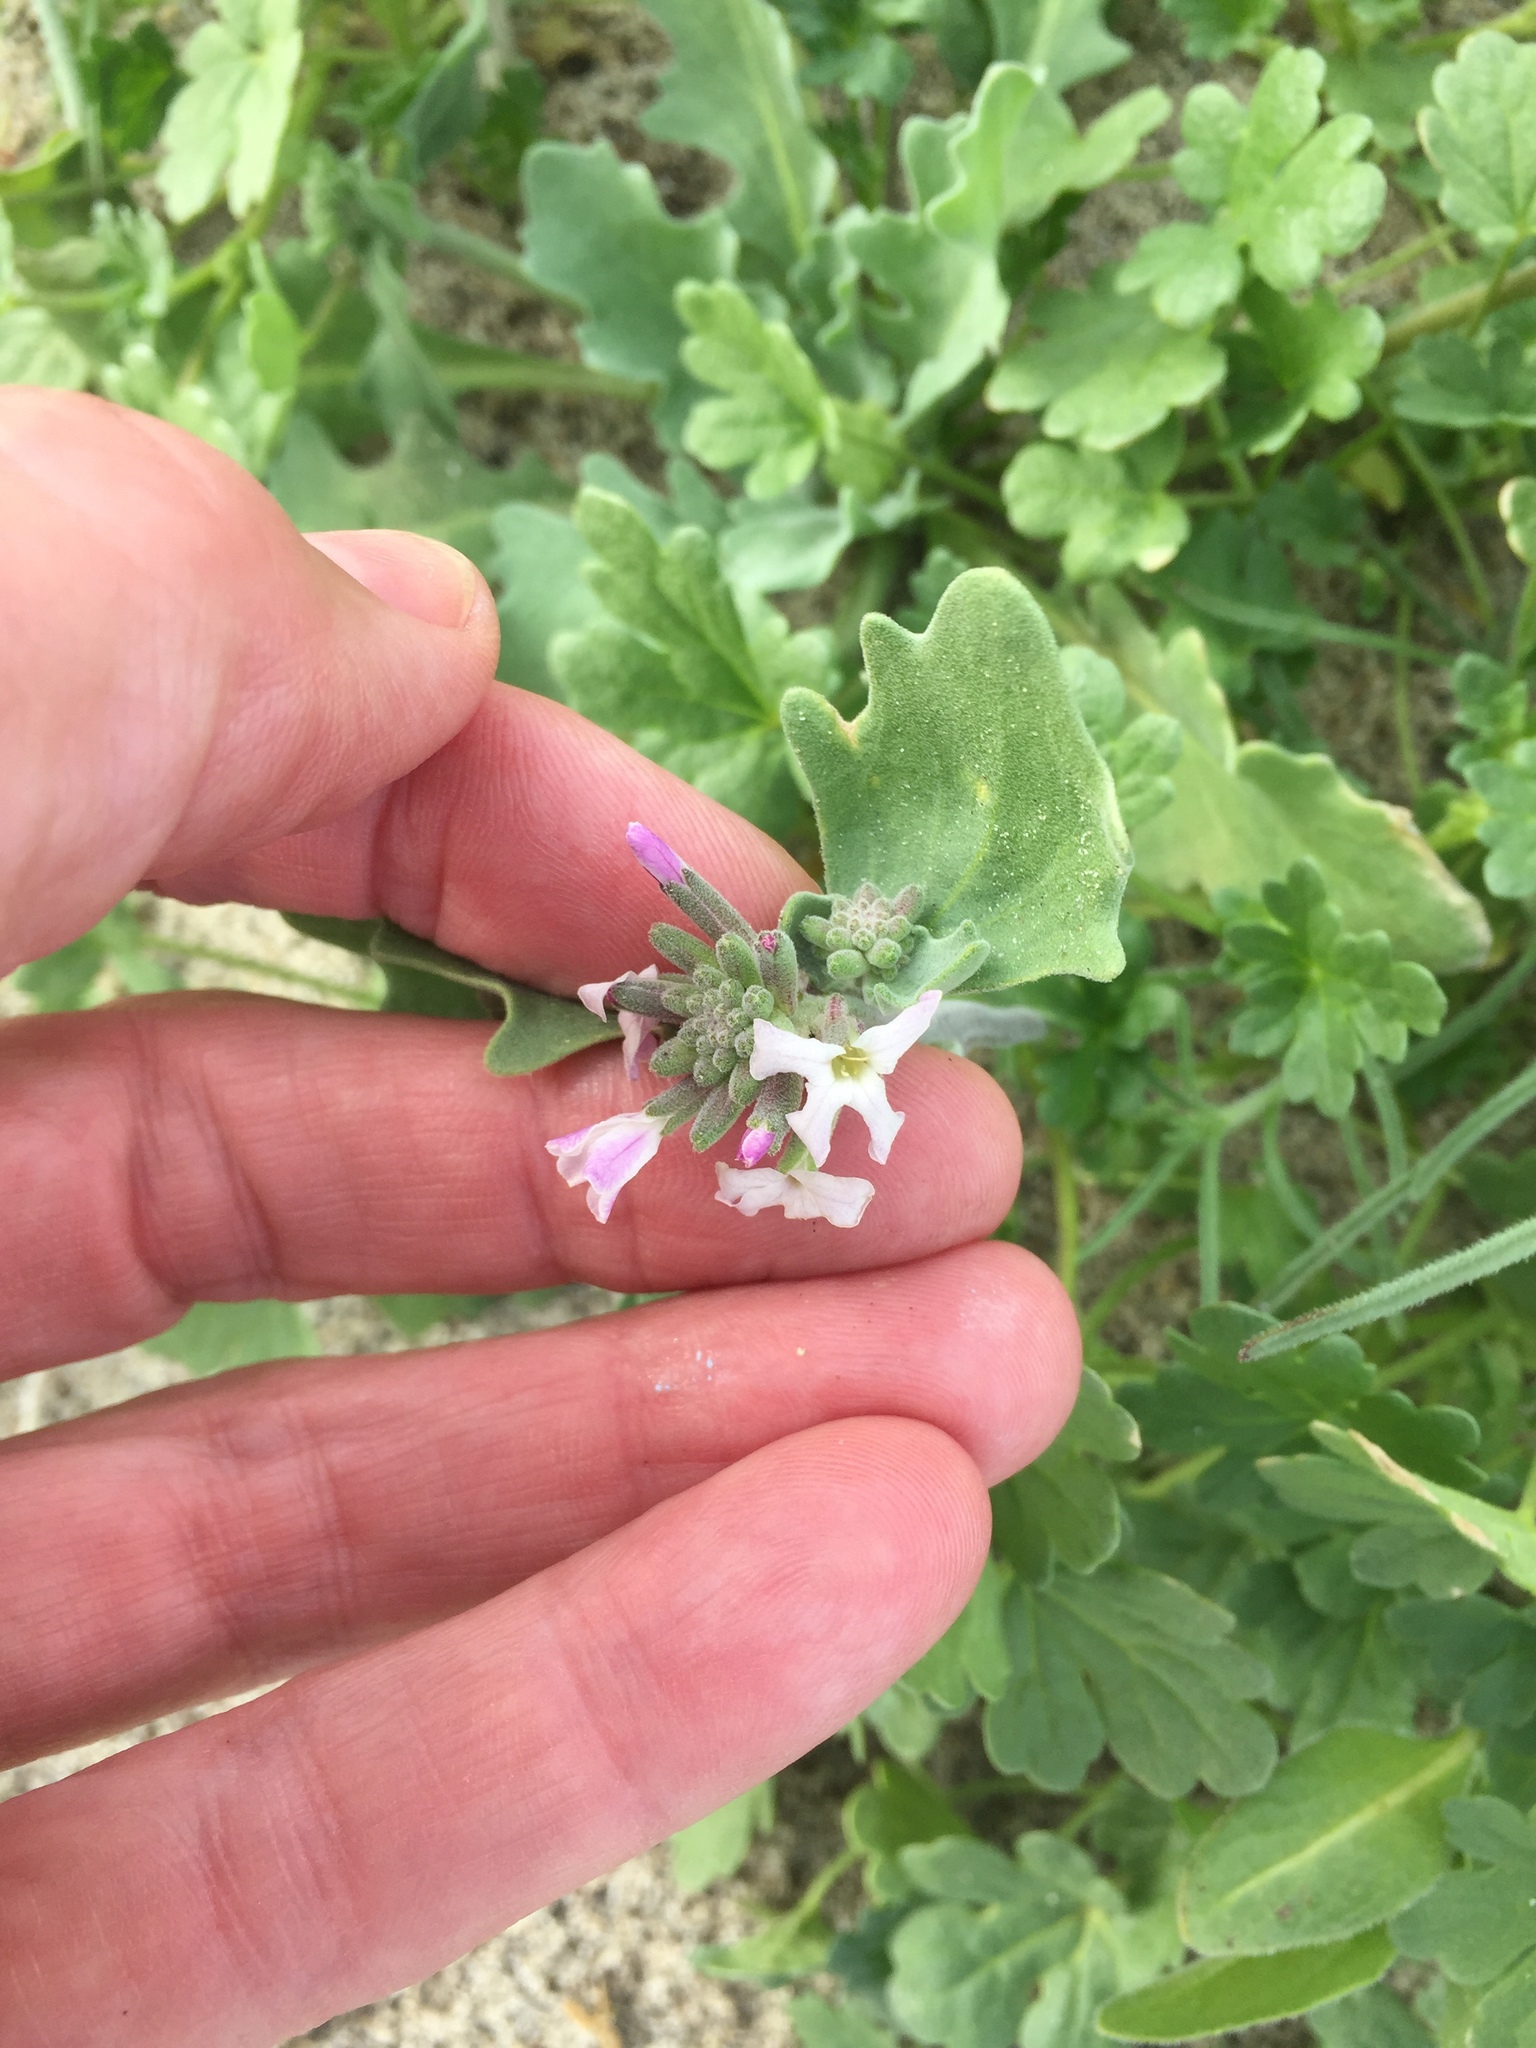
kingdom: Plantae
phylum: Tracheophyta
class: Magnoliopsida
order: Brassicales
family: Brassicaceae
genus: Dithyrea
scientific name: Dithyrea californica
